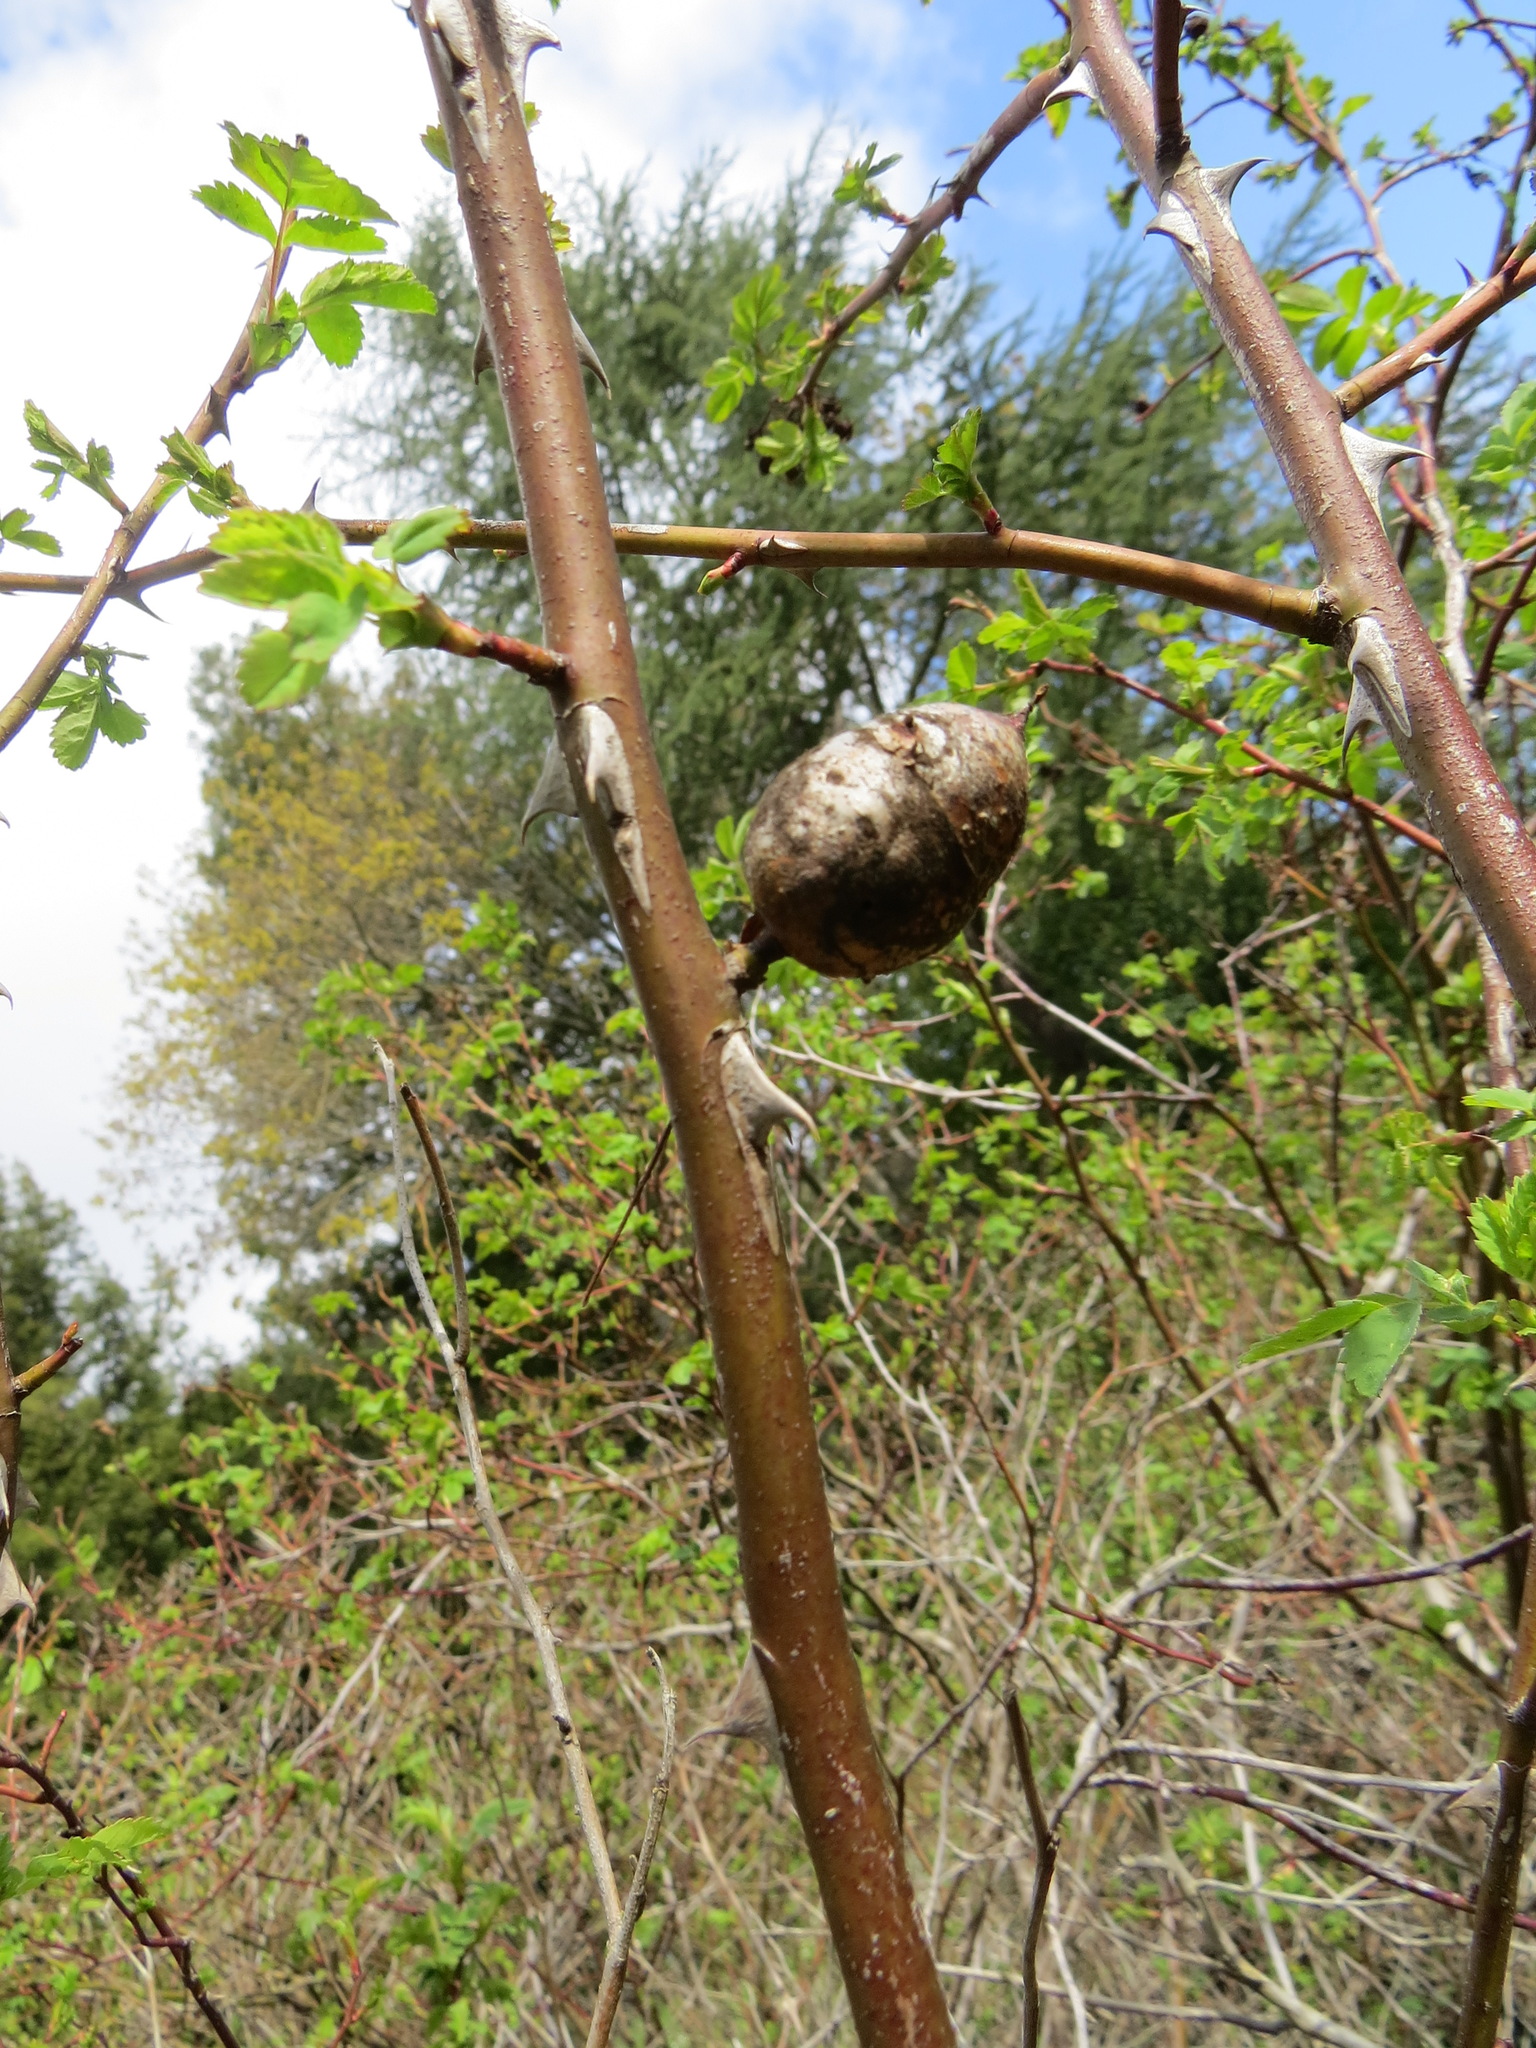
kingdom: Animalia
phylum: Arthropoda
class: Insecta
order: Hymenoptera
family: Cynipidae
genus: Diplolepis
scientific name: Diplolepis nodulosa
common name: Rose stem gall wasp
